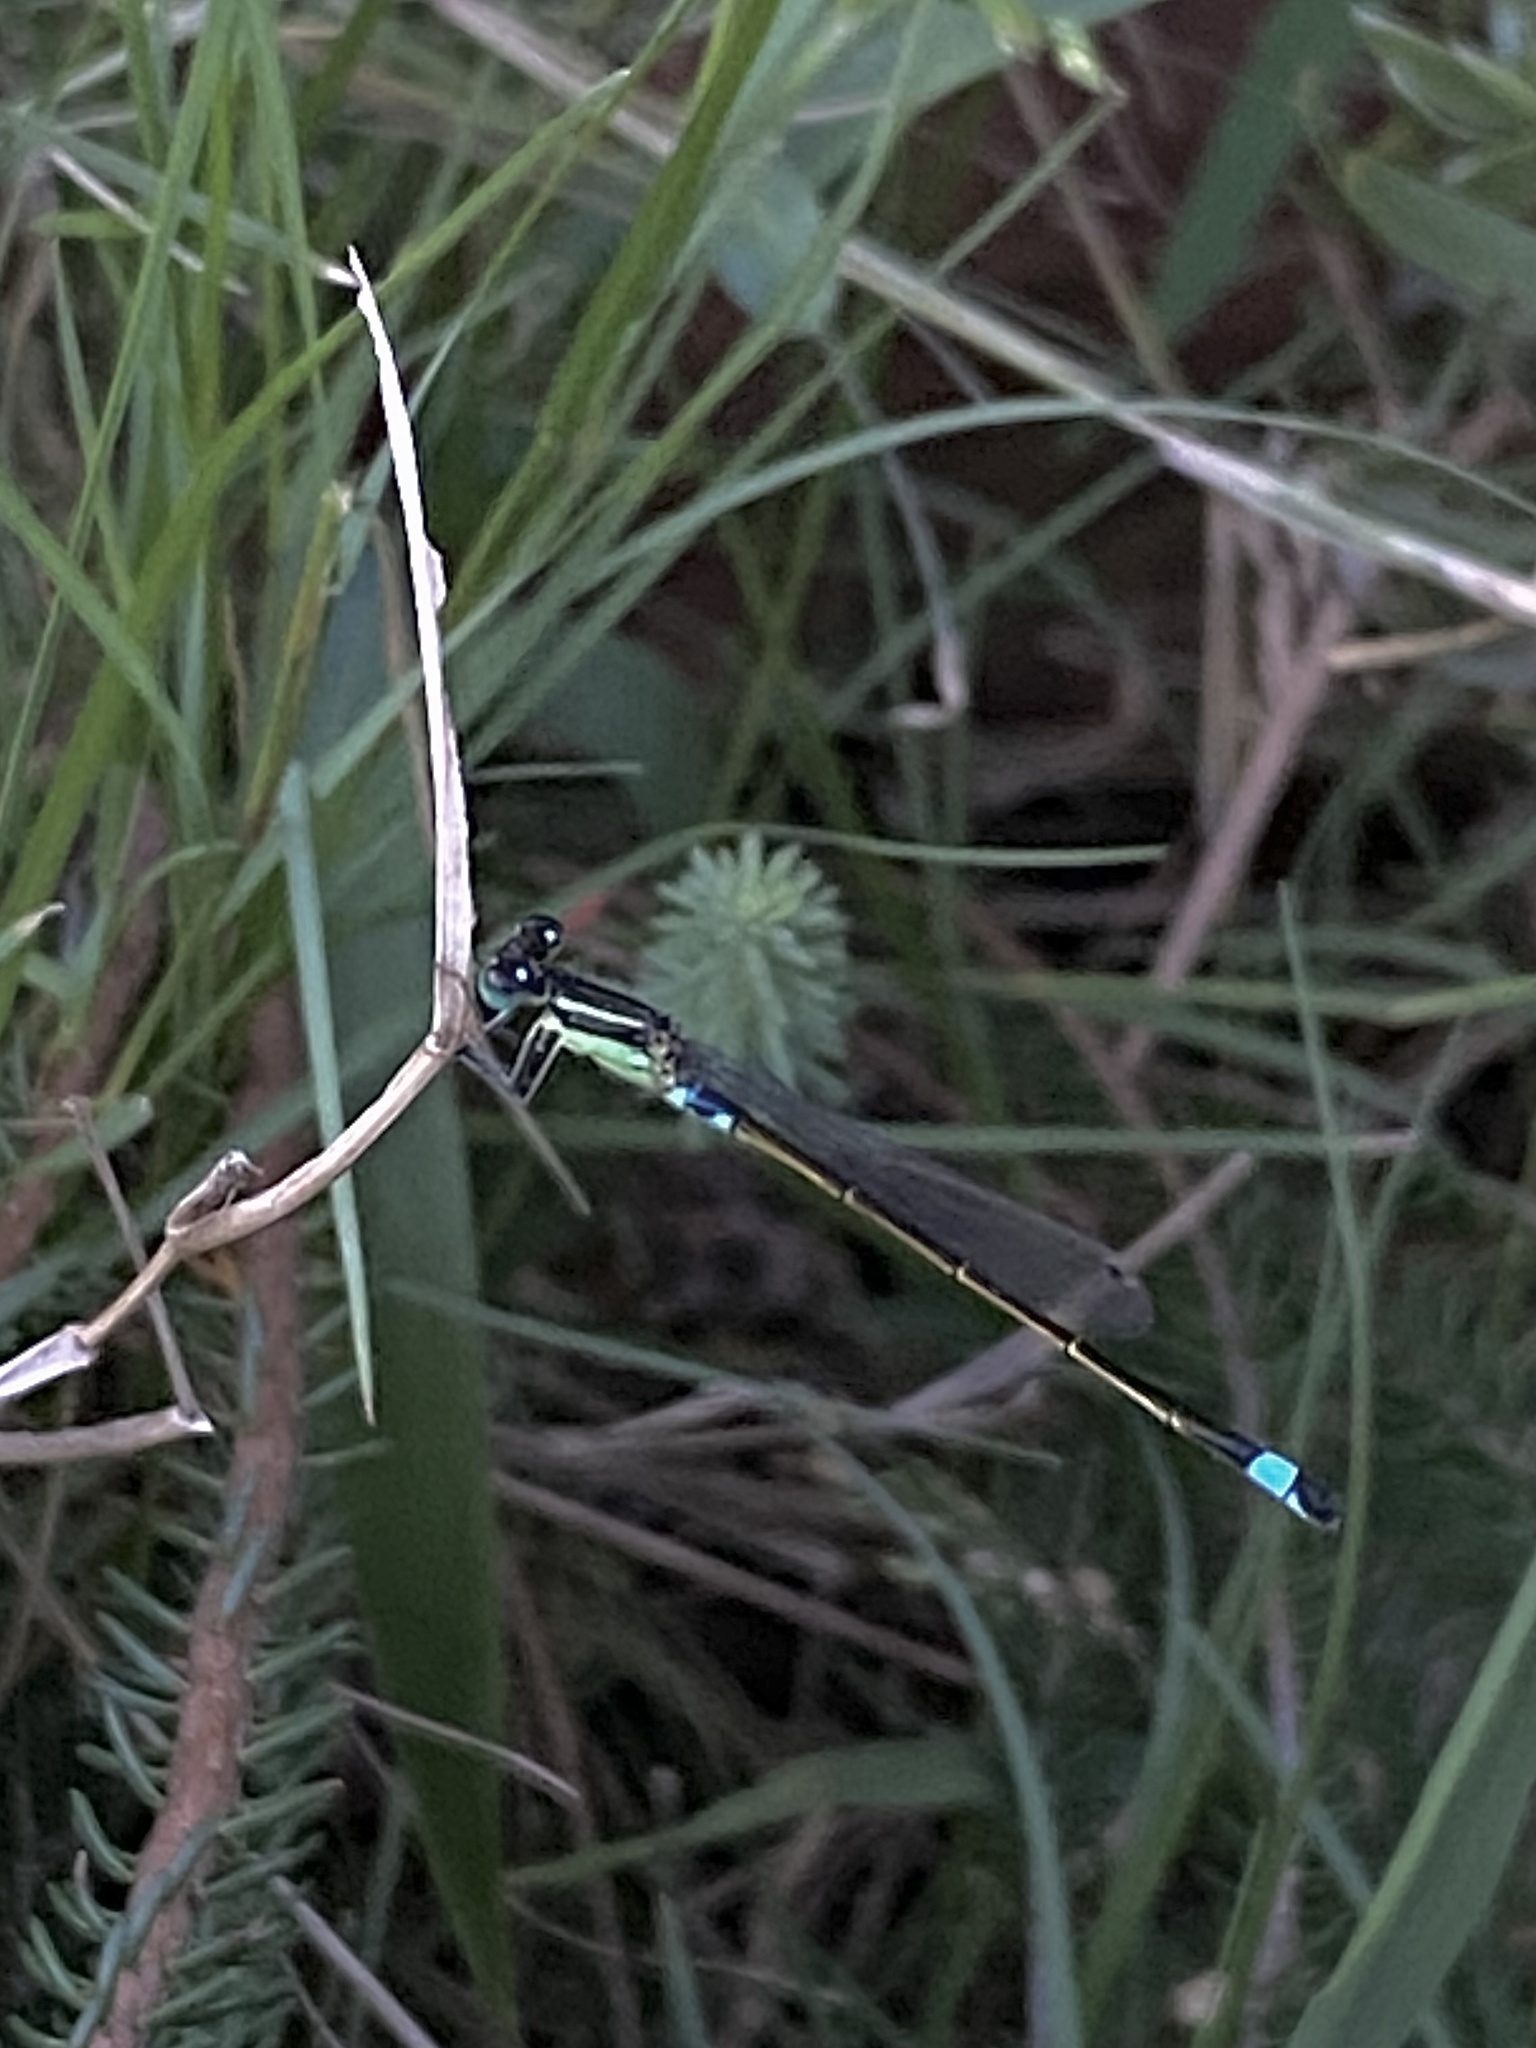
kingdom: Animalia
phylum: Arthropoda
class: Insecta
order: Odonata
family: Coenagrionidae
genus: Ischnura
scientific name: Ischnura senegalensis
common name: Tropical bluetail
